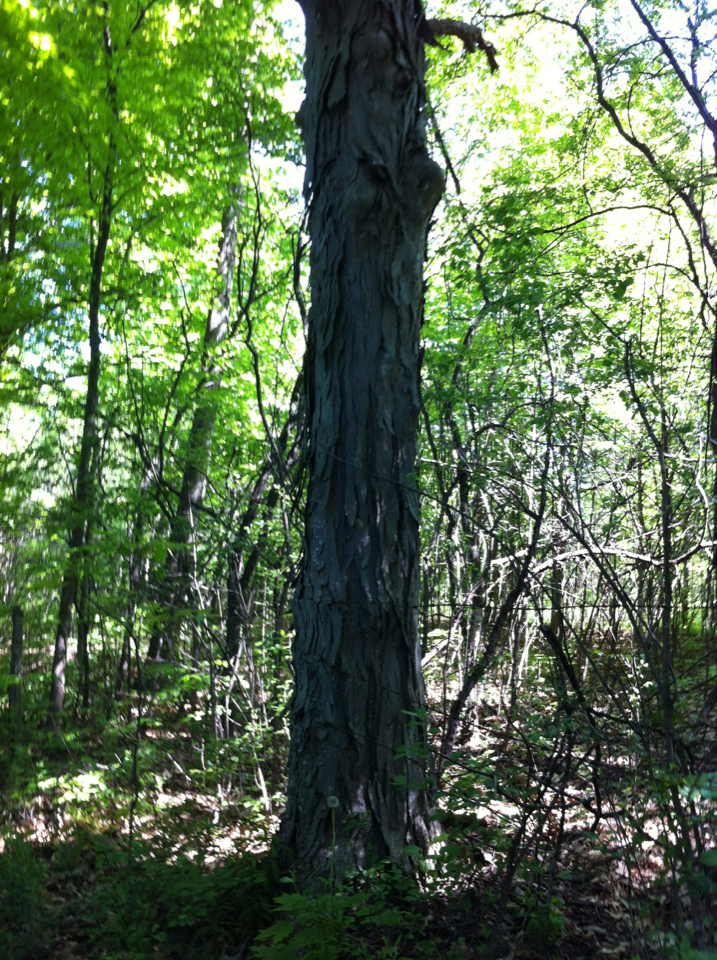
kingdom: Plantae
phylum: Tracheophyta
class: Magnoliopsida
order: Fagales
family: Juglandaceae
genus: Carya
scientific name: Carya ovata
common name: Shagbark hickory
